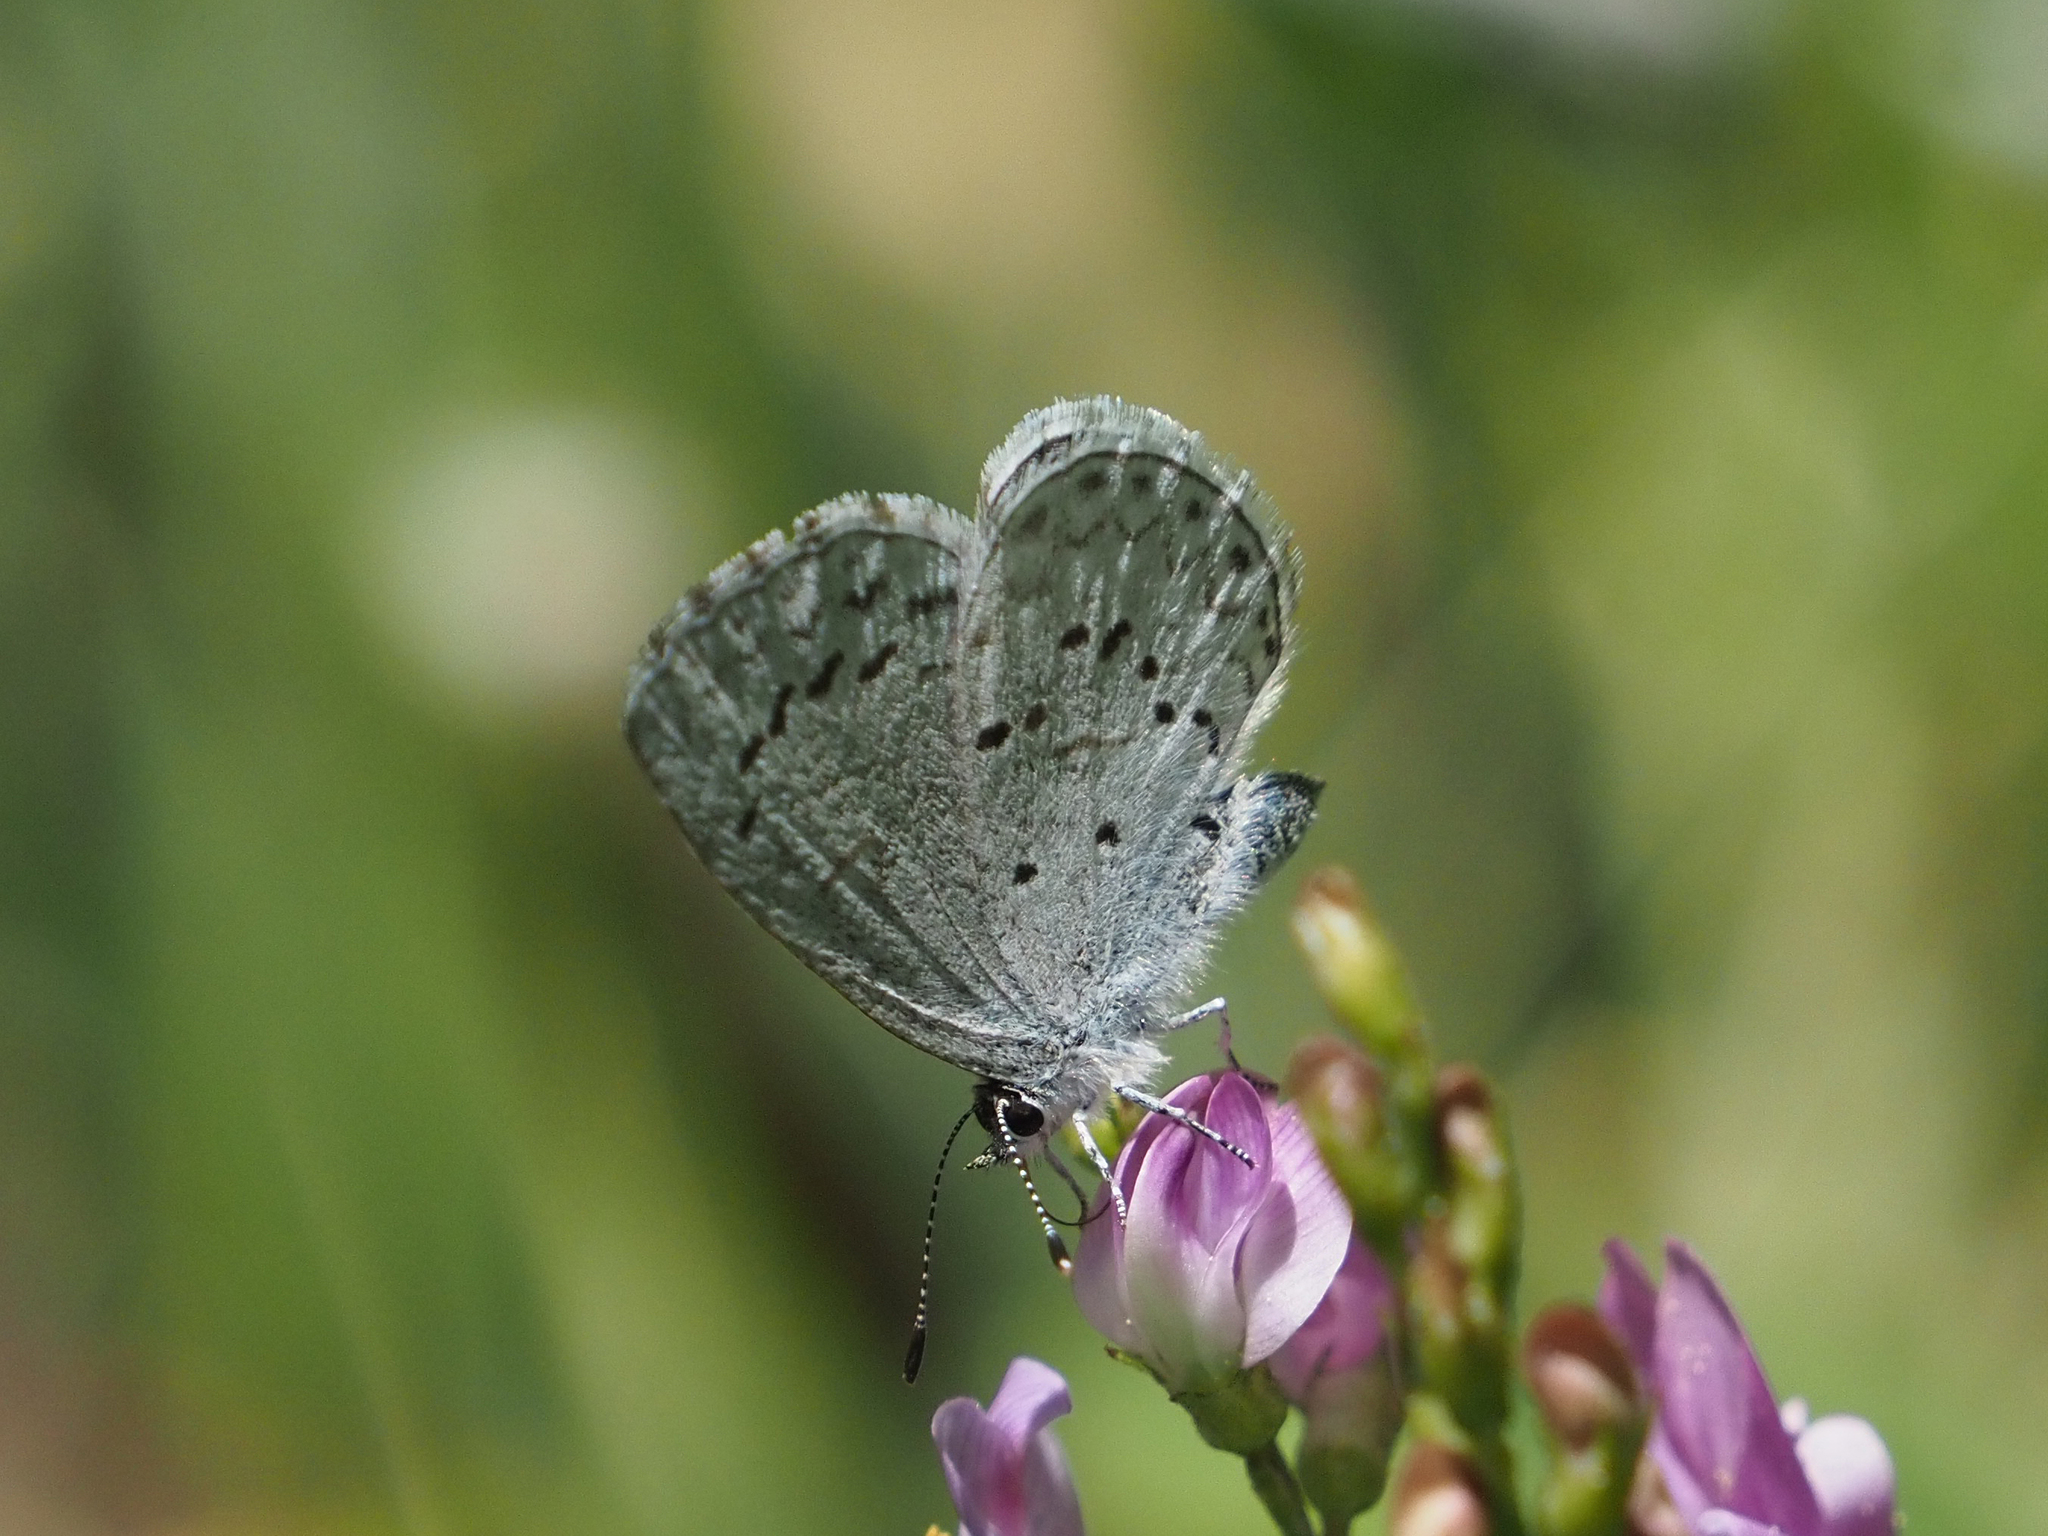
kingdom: Animalia
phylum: Arthropoda
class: Insecta
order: Lepidoptera
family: Lycaenidae
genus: Celastrina
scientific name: Celastrina ladon
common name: Spring azure
